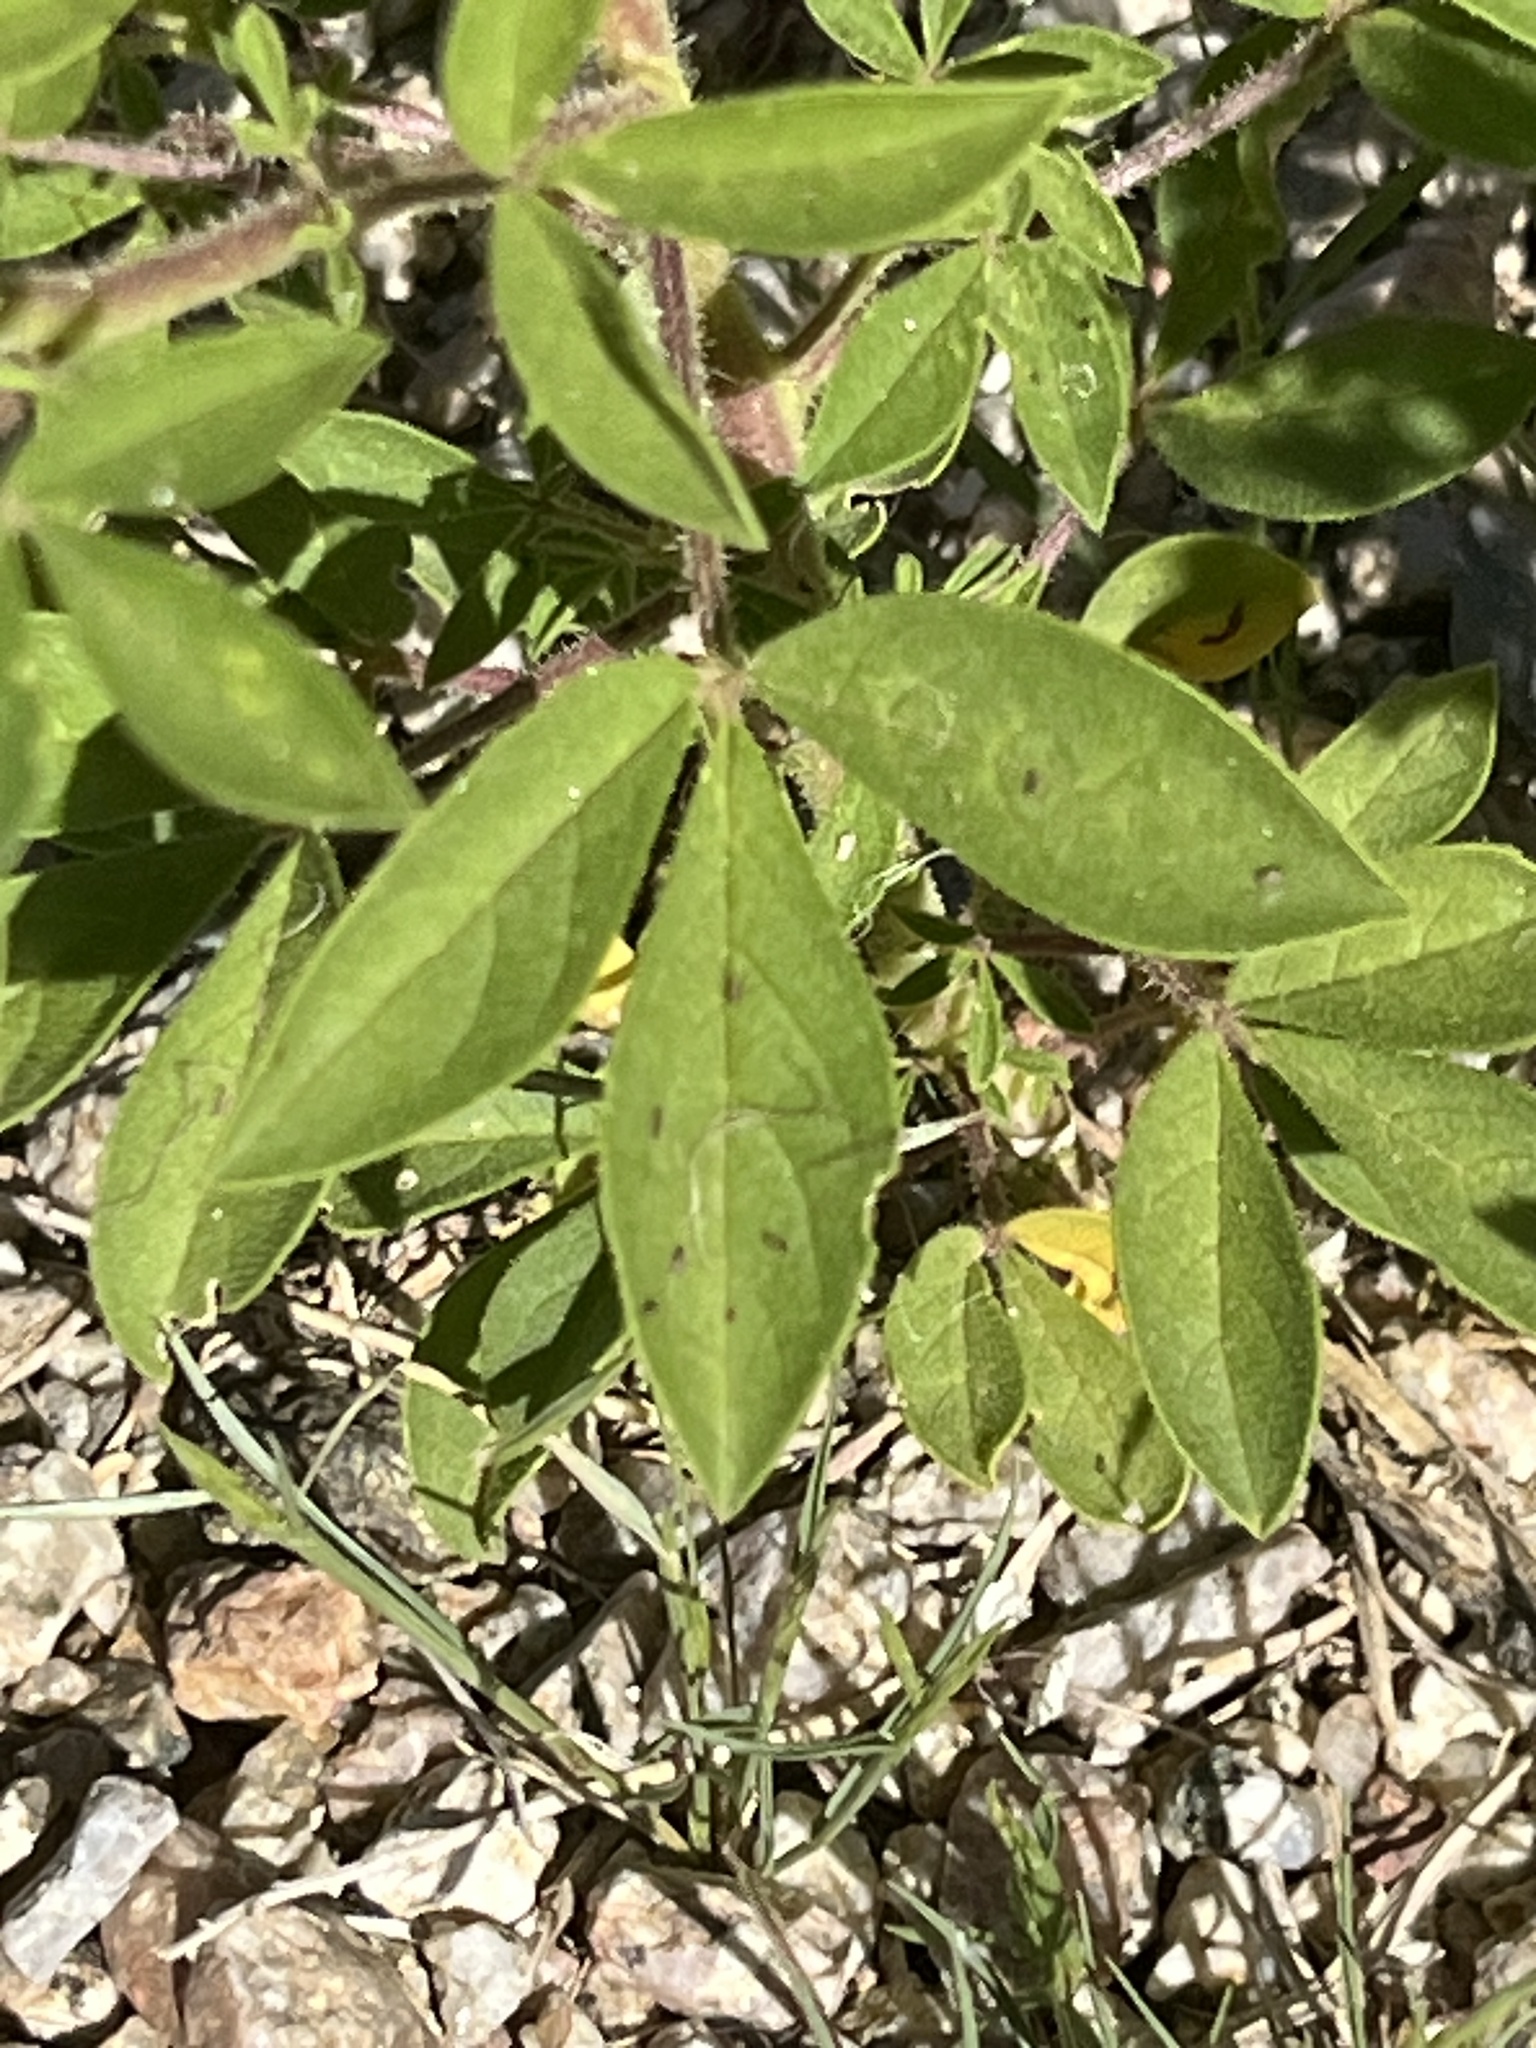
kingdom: Plantae
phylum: Tracheophyta
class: Magnoliopsida
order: Brassicales
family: Cleomaceae
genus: Polanisia
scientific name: Polanisia trachysperma
